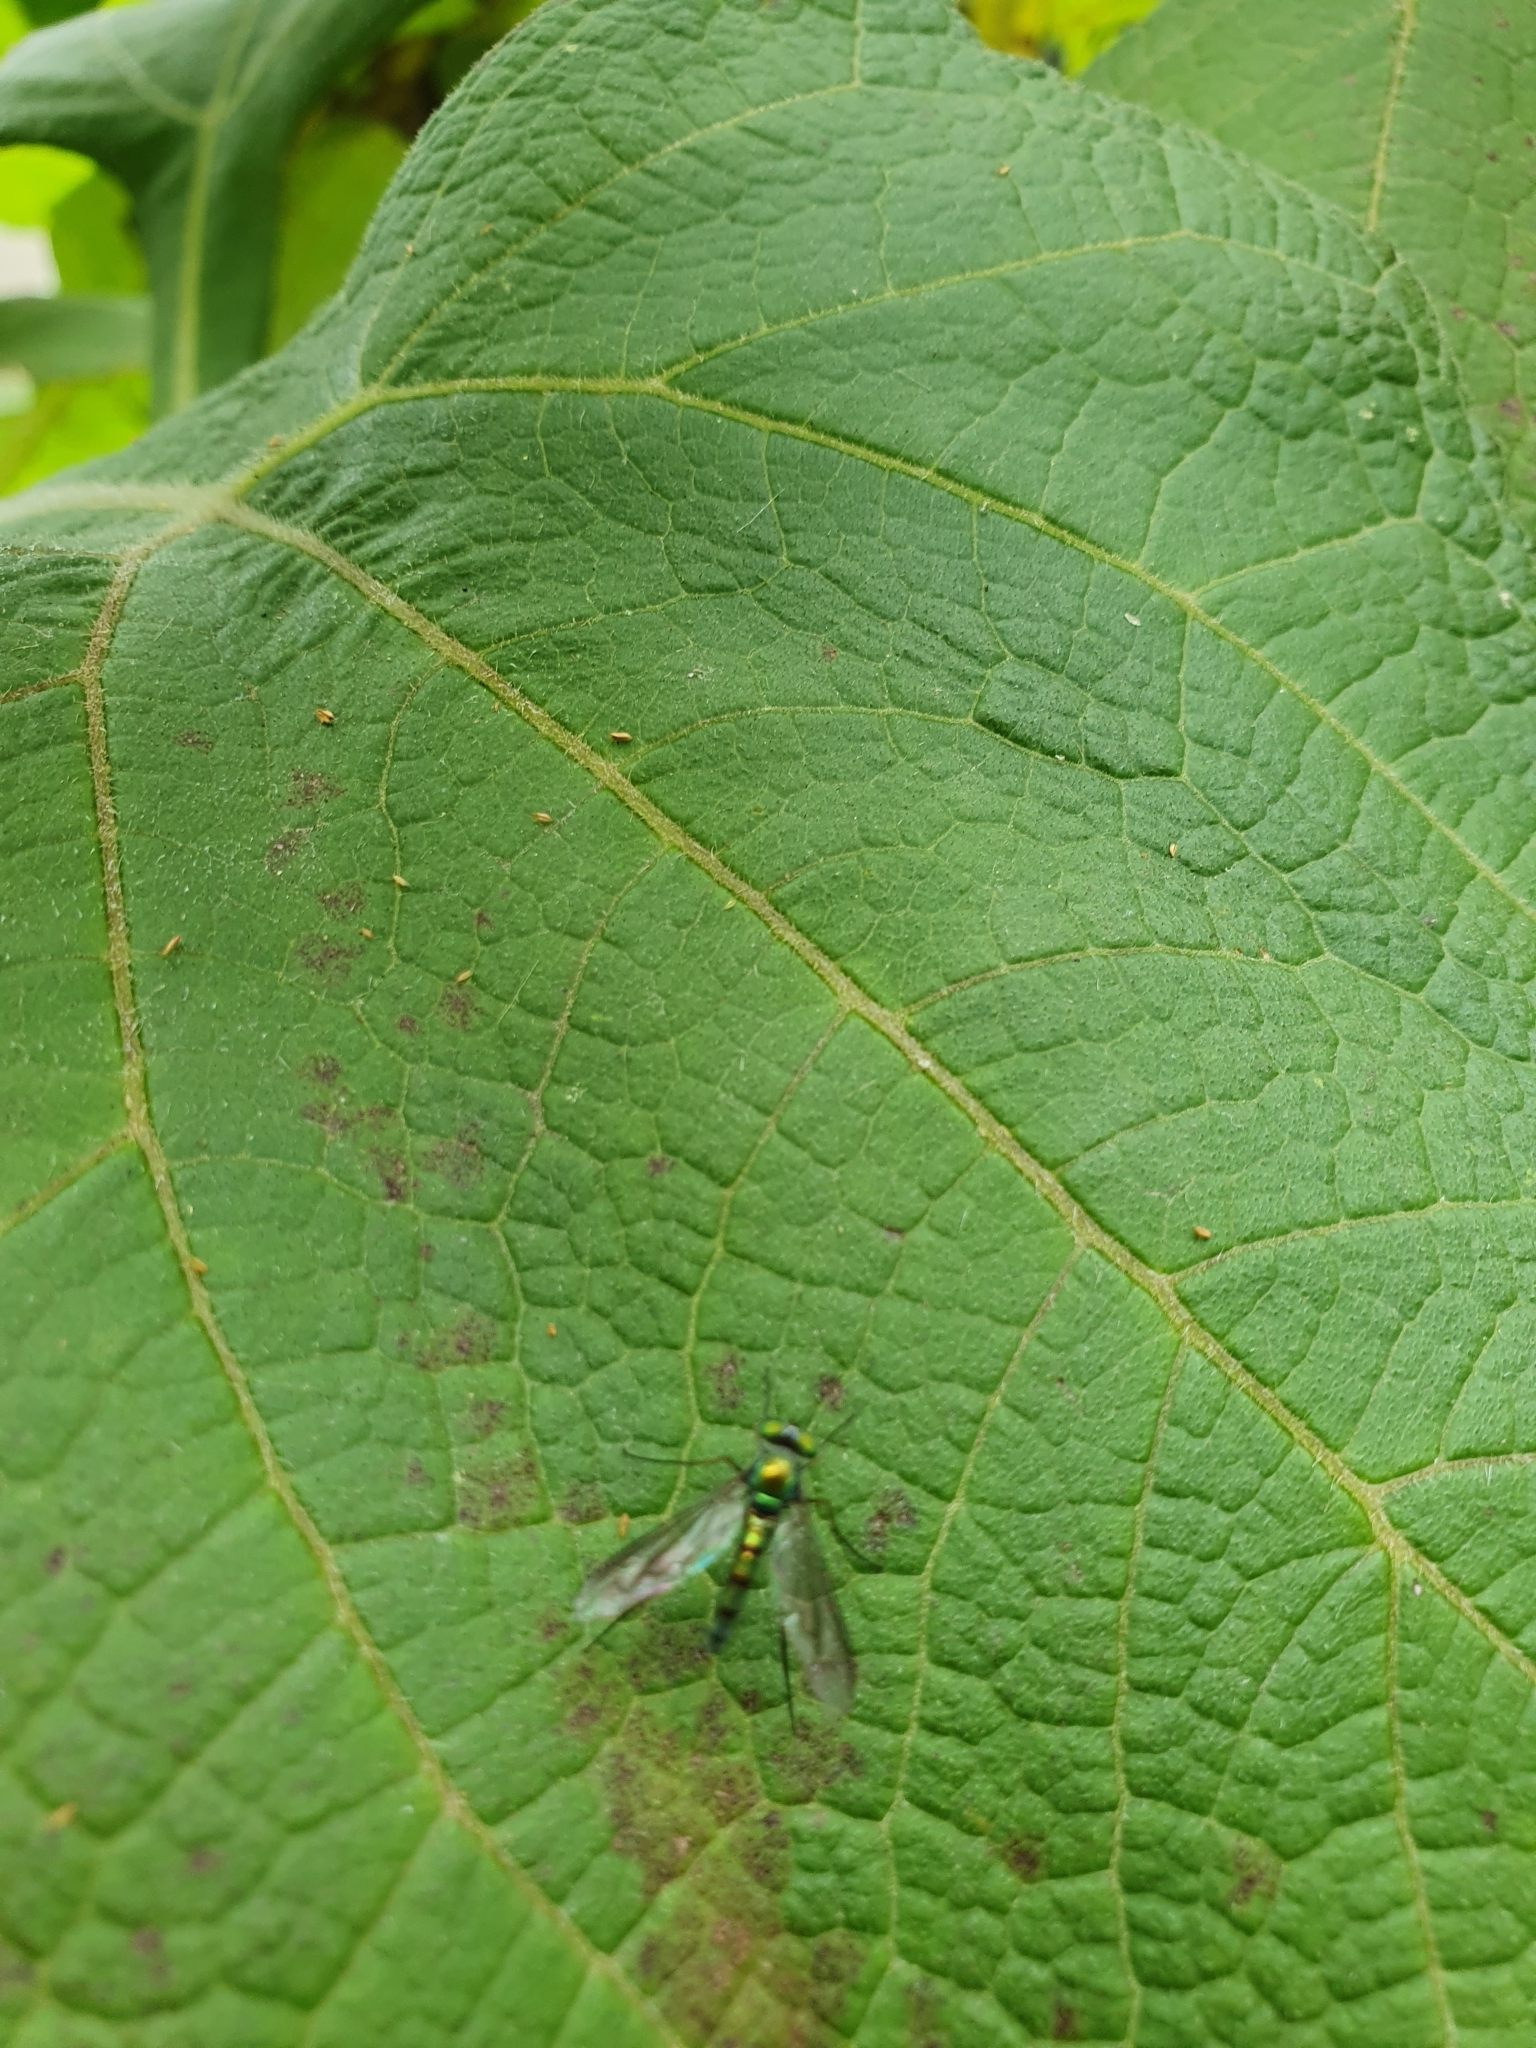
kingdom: Animalia
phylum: Arthropoda
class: Insecta
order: Diptera
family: Dolichopodidae
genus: Heteropsilopus
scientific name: Heteropsilopus cingulipes
